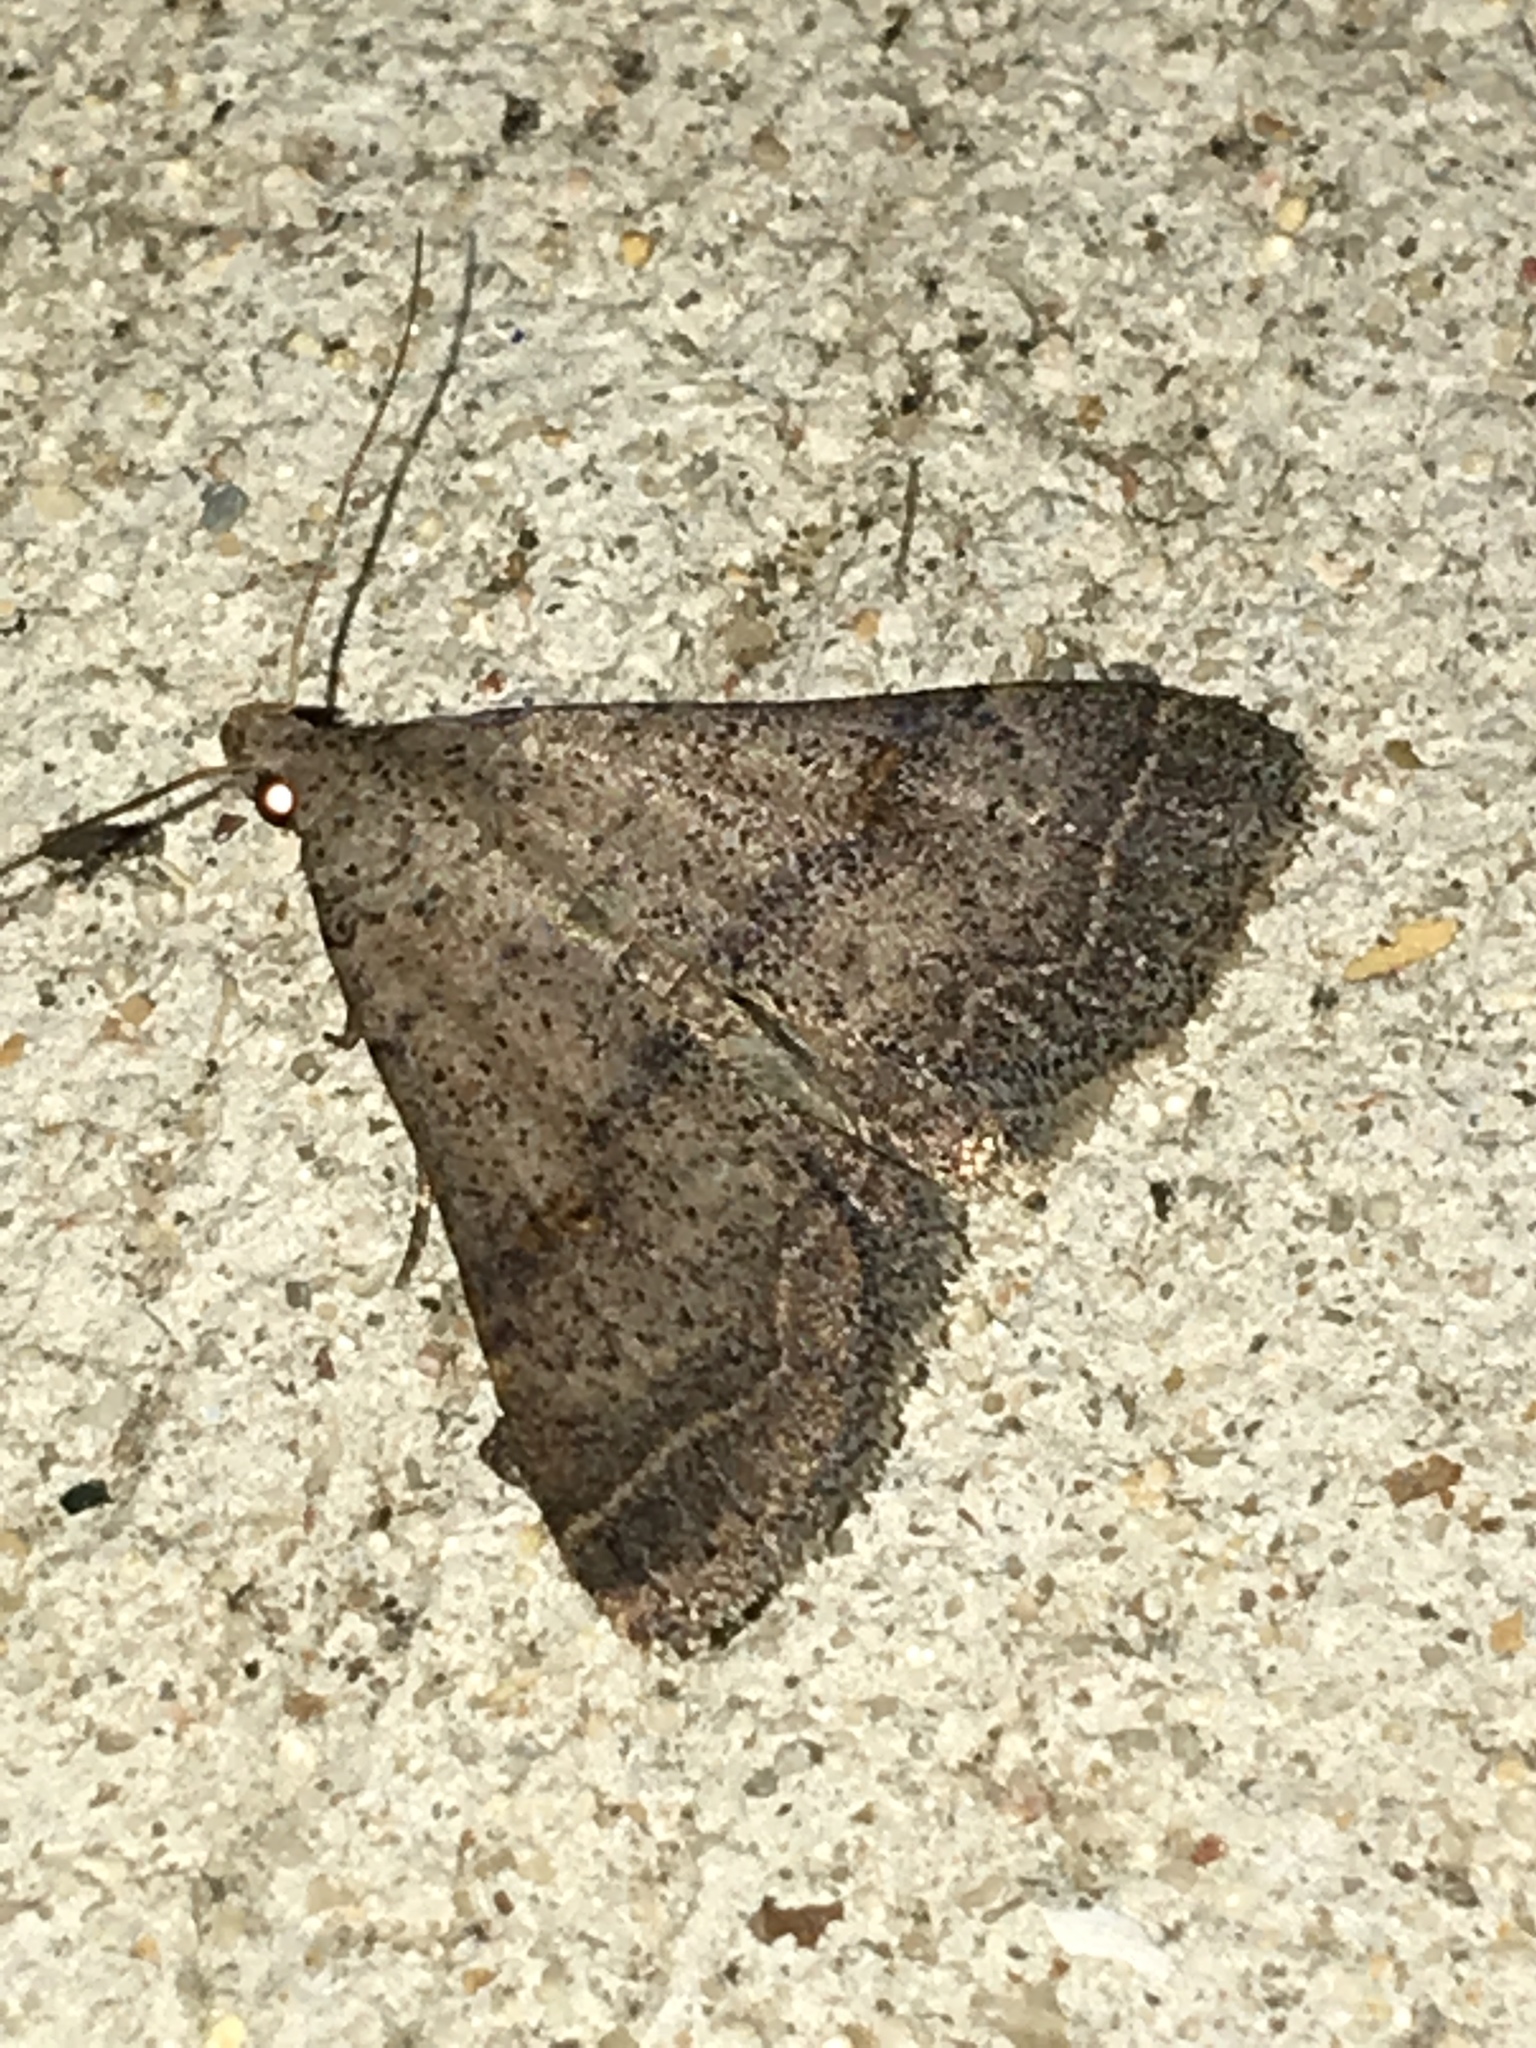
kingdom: Animalia
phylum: Arthropoda
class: Insecta
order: Lepidoptera
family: Erebidae
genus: Bleptina
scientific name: Bleptina caradrinalis
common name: Bent-winged owlet
